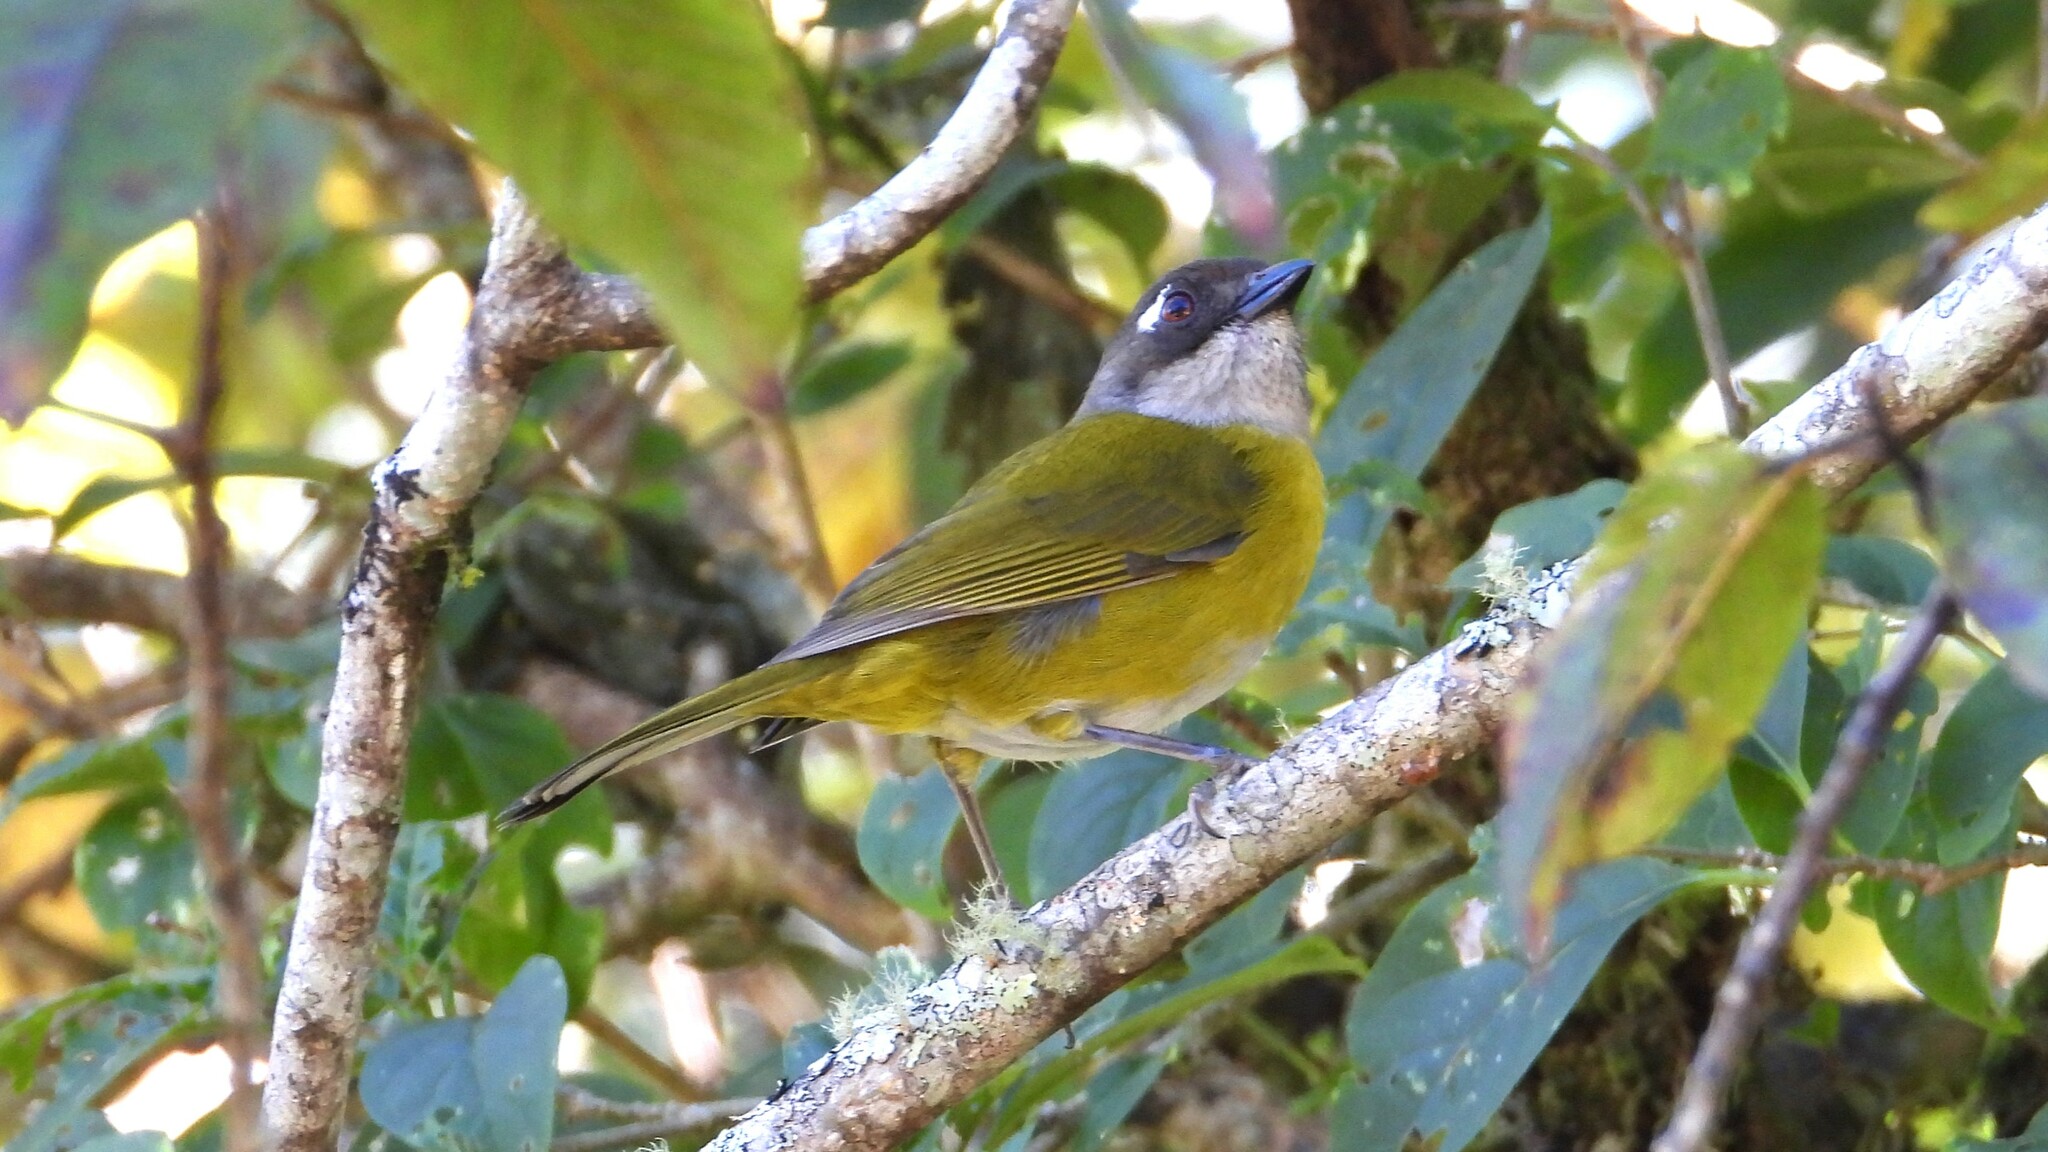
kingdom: Animalia
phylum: Chordata
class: Aves
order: Passeriformes
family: Passerellidae
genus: Chlorospingus
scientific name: Chlorospingus flavopectus
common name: Common chlorospingus
